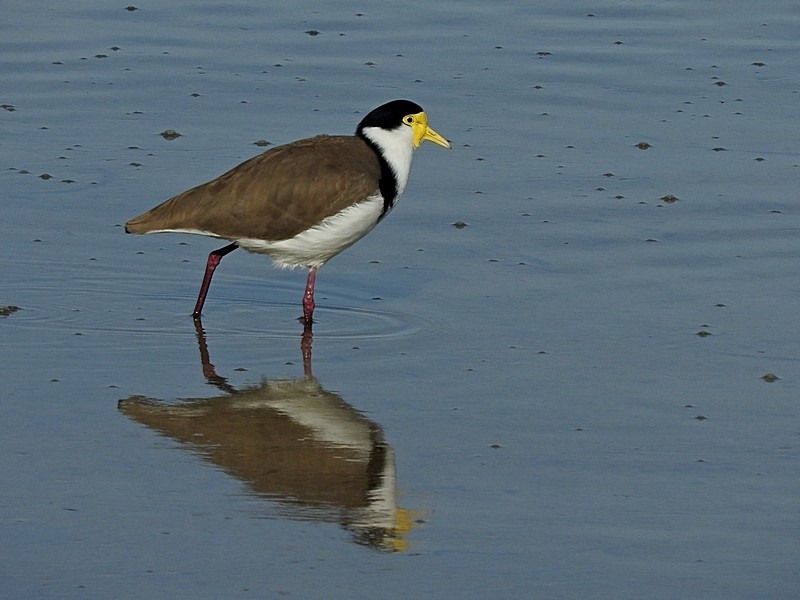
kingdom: Animalia
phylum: Chordata
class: Aves
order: Charadriiformes
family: Charadriidae
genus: Vanellus
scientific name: Vanellus miles
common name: Masked lapwing
